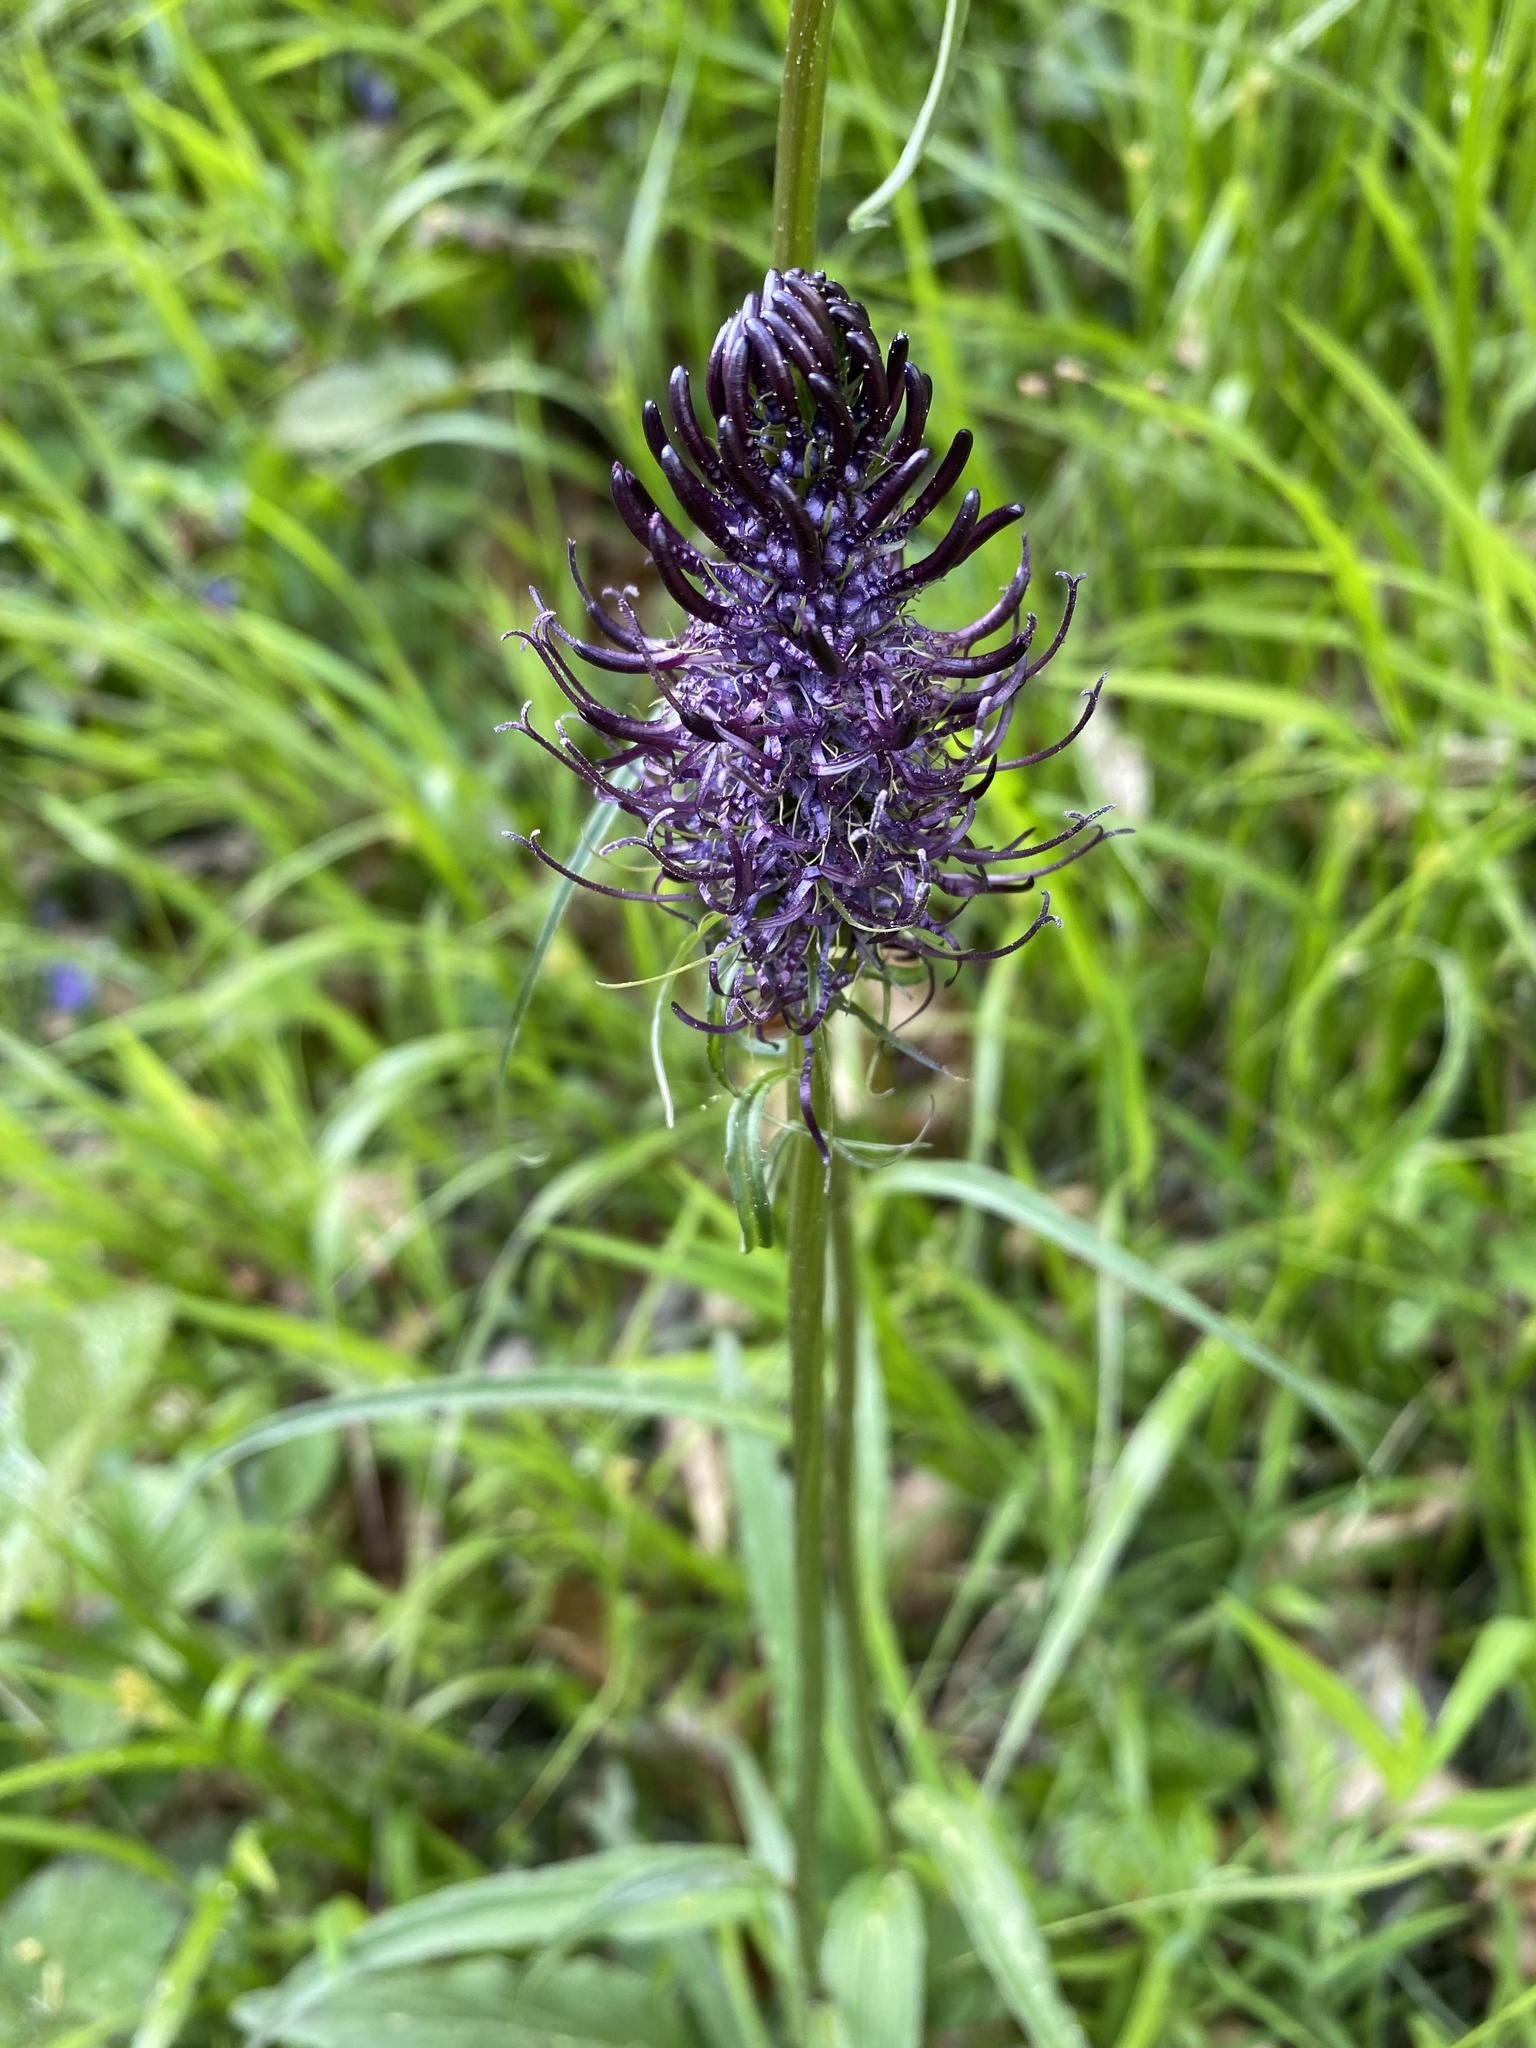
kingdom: Plantae
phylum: Tracheophyta
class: Magnoliopsida
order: Asterales
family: Campanulaceae
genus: Phyteuma
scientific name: Phyteuma nigrum
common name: Black rampion
